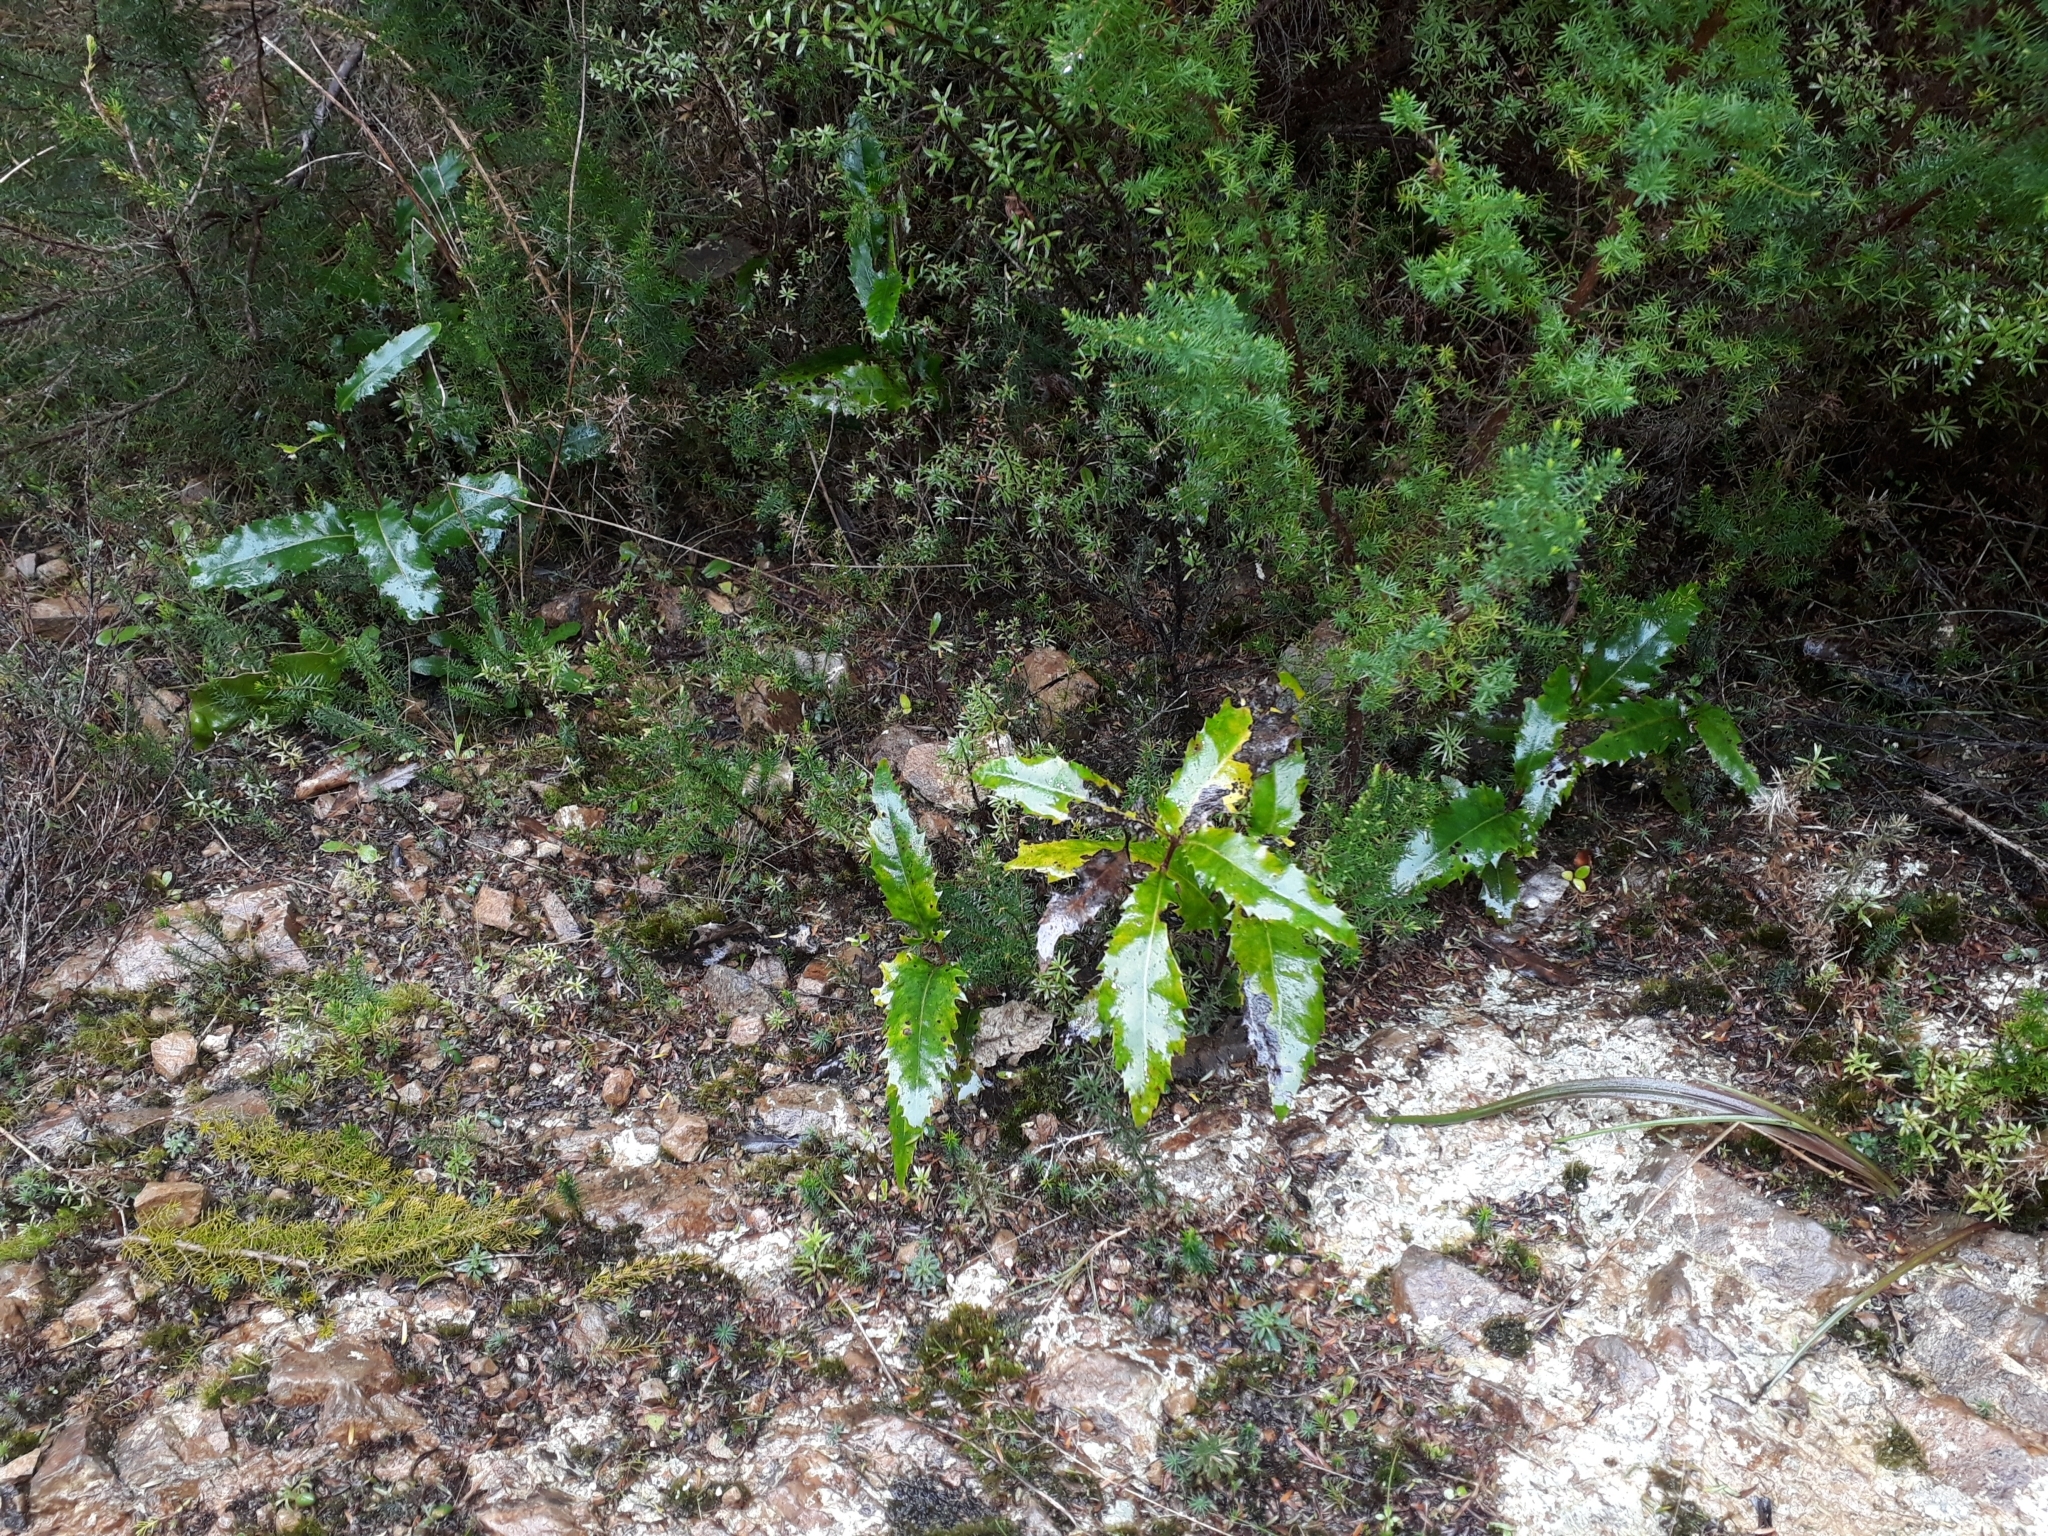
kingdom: Plantae
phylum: Tracheophyta
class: Magnoliopsida
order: Proteales
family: Proteaceae
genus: Lomatia
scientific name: Lomatia fraseri
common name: Forest lomatia
